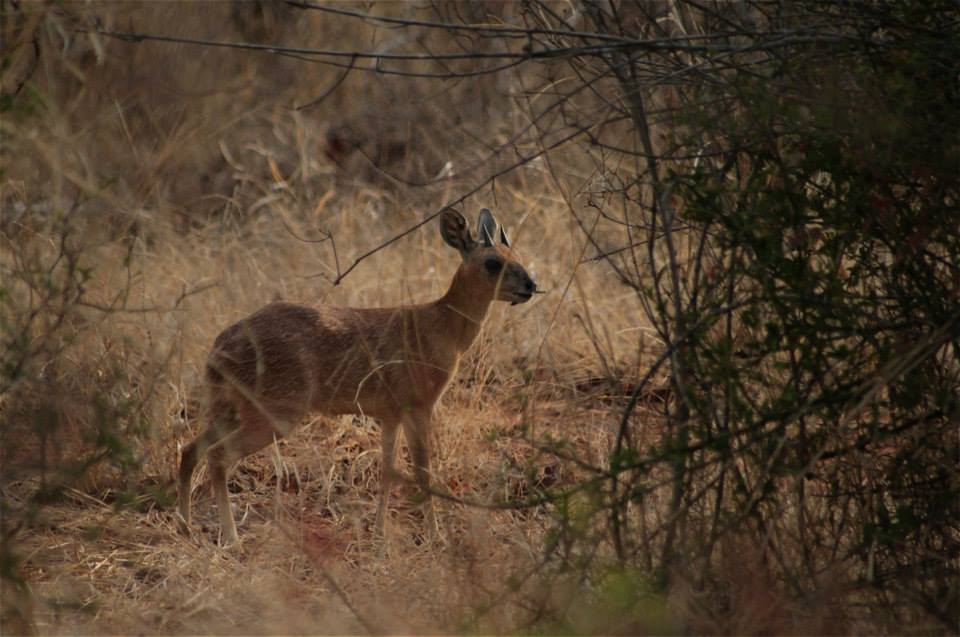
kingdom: Animalia
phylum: Chordata
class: Mammalia
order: Artiodactyla
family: Bovidae
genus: Raphicerus
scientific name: Raphicerus sharpei
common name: Sharpe's grysbok
